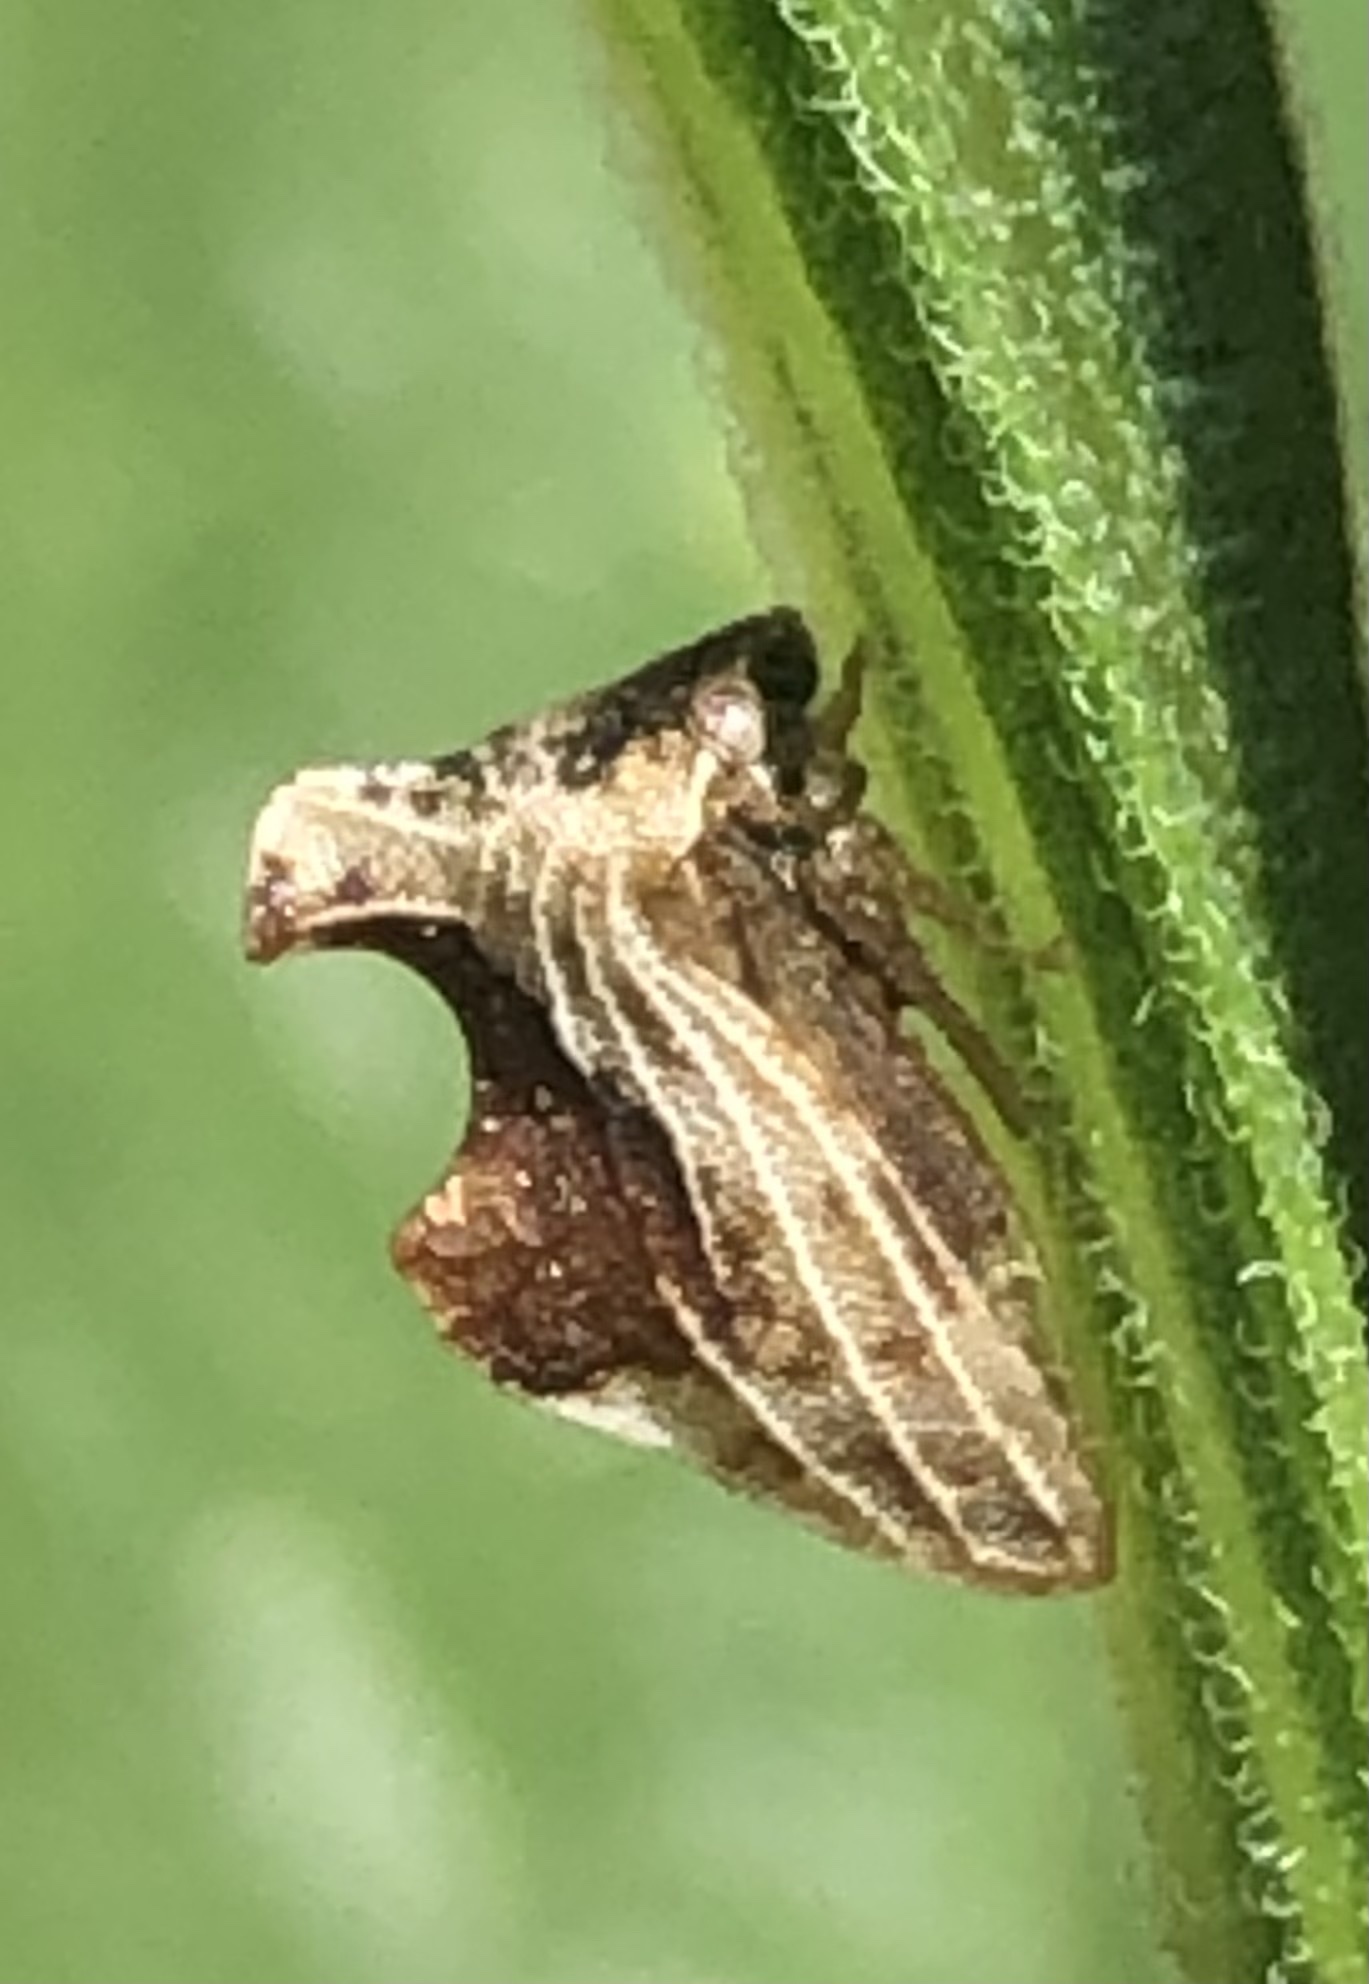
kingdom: Animalia
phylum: Arthropoda
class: Insecta
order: Hemiptera
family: Membracidae
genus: Entylia
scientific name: Entylia carinata
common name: Keeled treehopper
